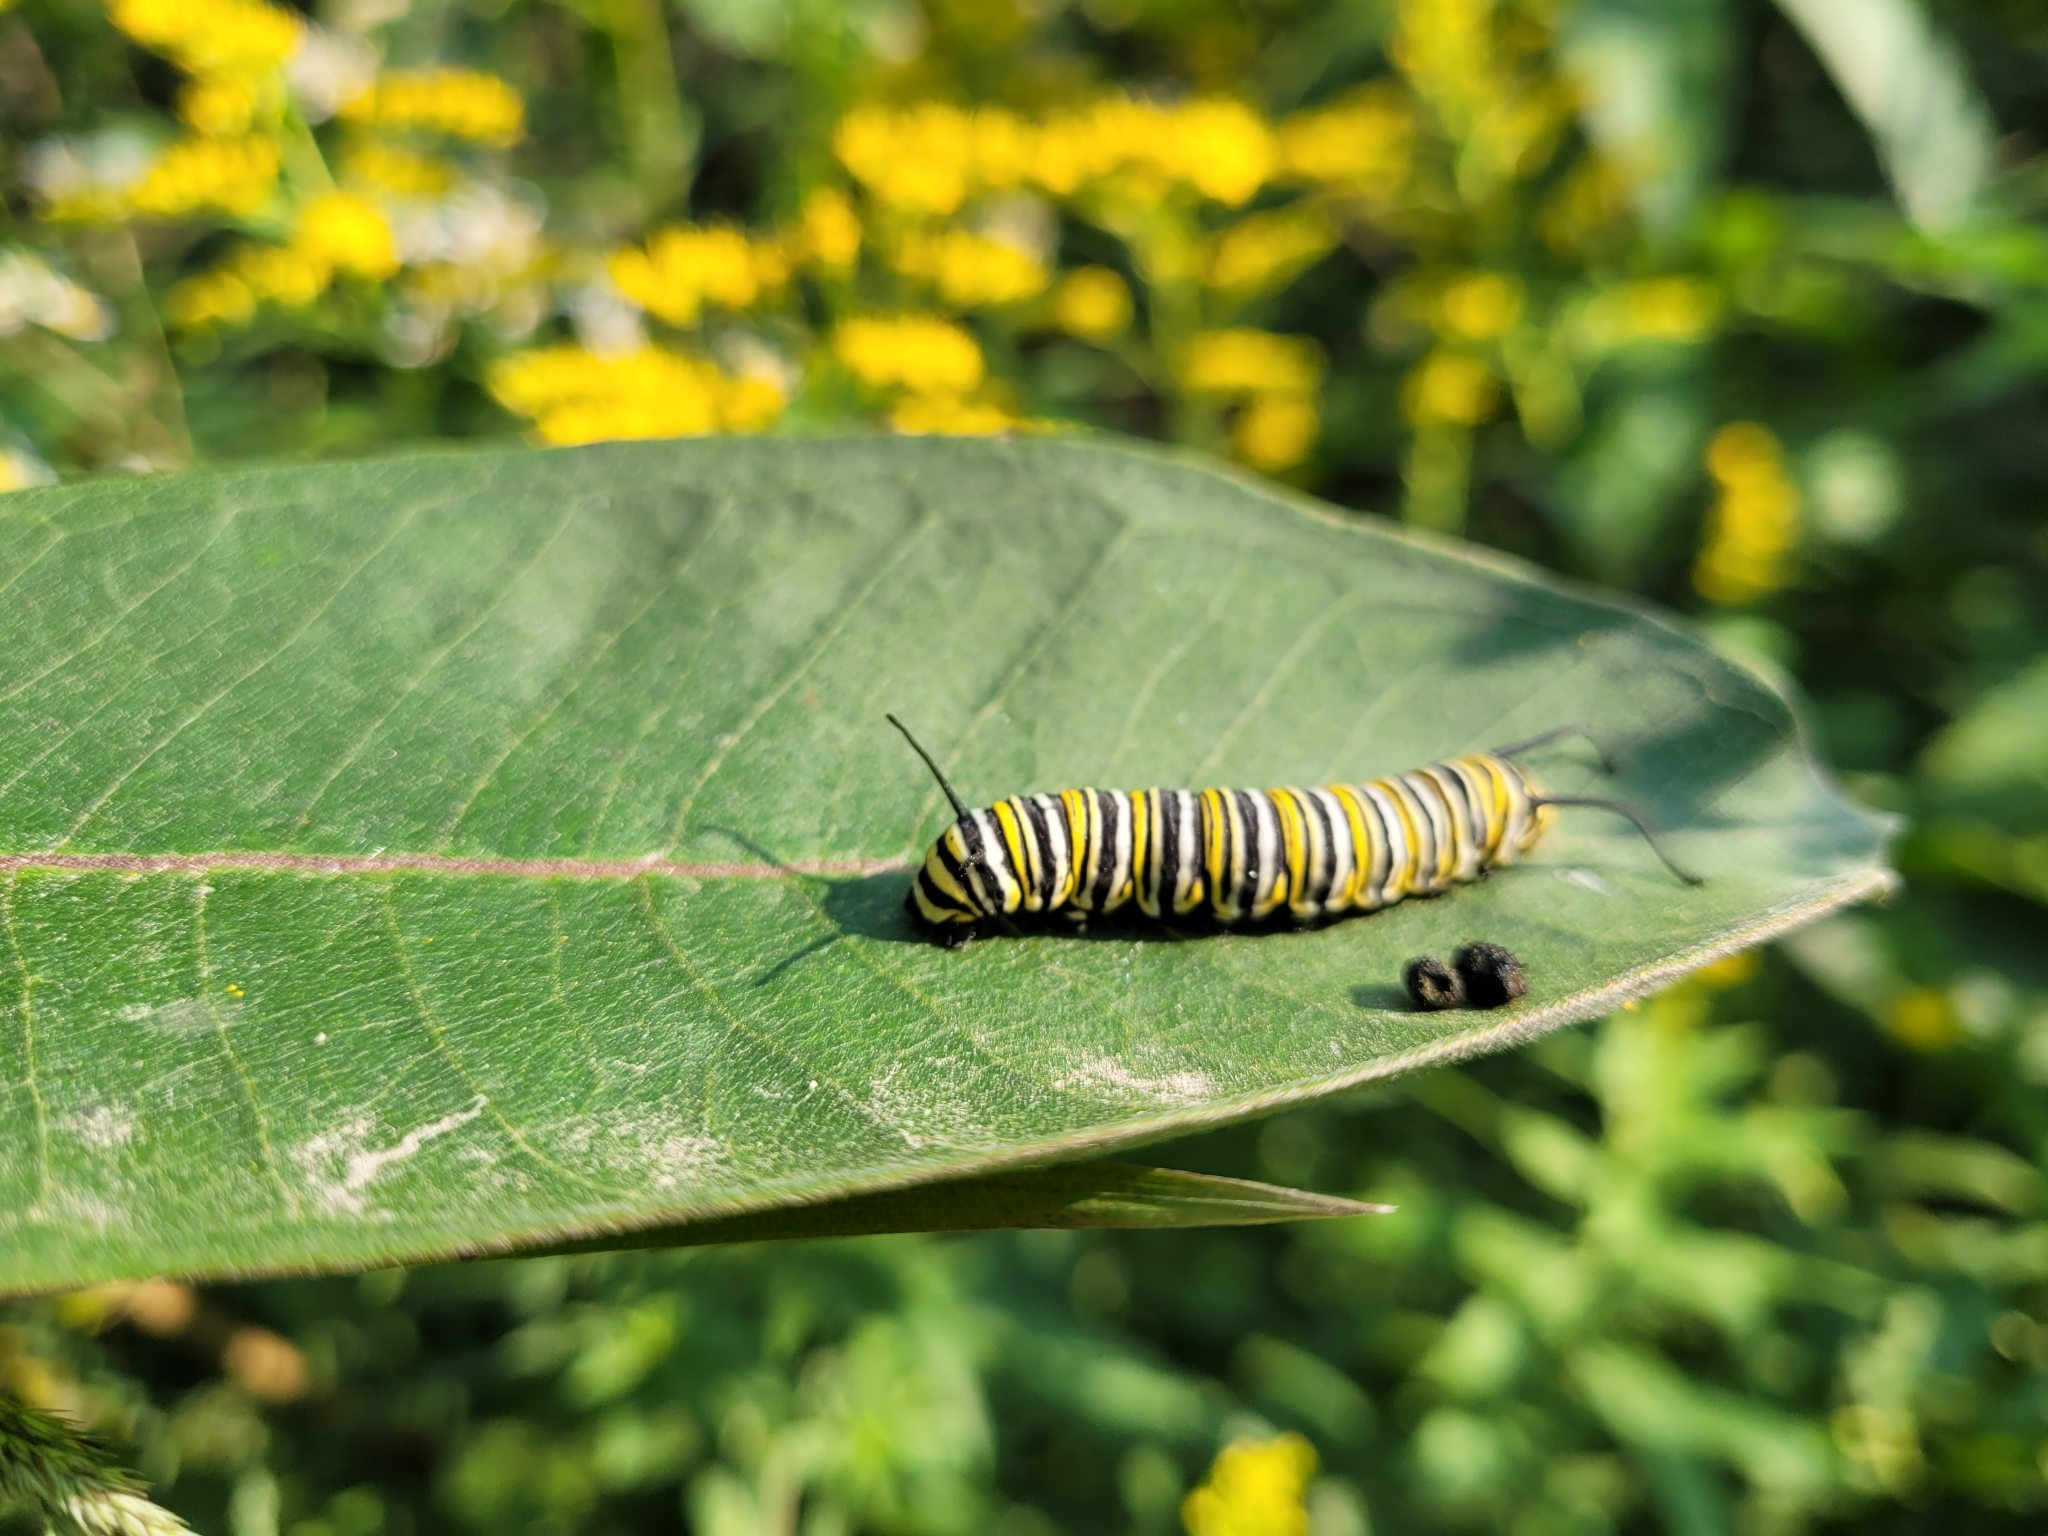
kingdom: Animalia
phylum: Arthropoda
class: Insecta
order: Lepidoptera
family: Nymphalidae
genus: Danaus
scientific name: Danaus plexippus
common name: Monarch
